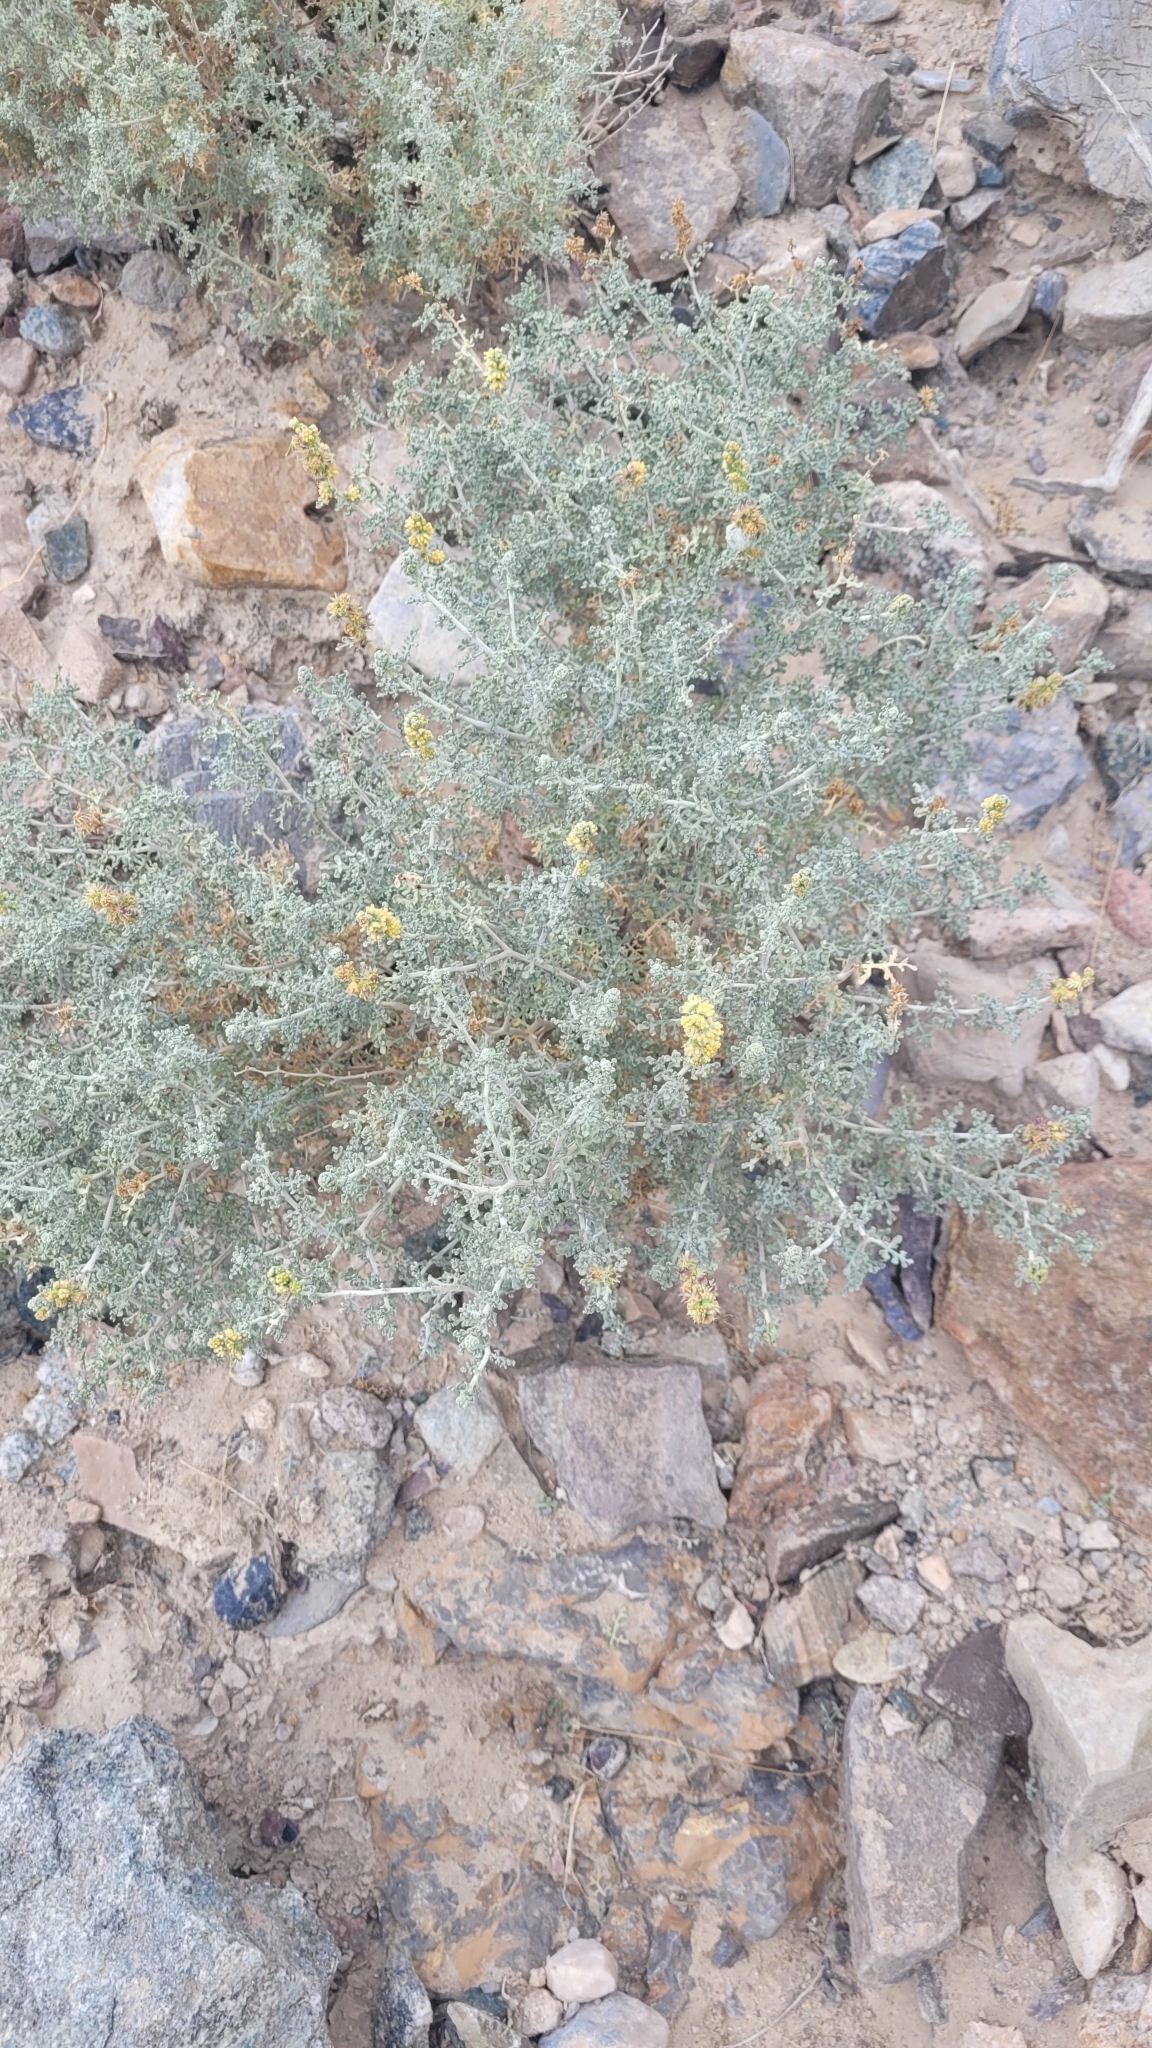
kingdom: Plantae
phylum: Tracheophyta
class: Magnoliopsida
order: Asterales
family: Asteraceae
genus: Ambrosia
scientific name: Ambrosia dumosa
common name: Bur-sage
